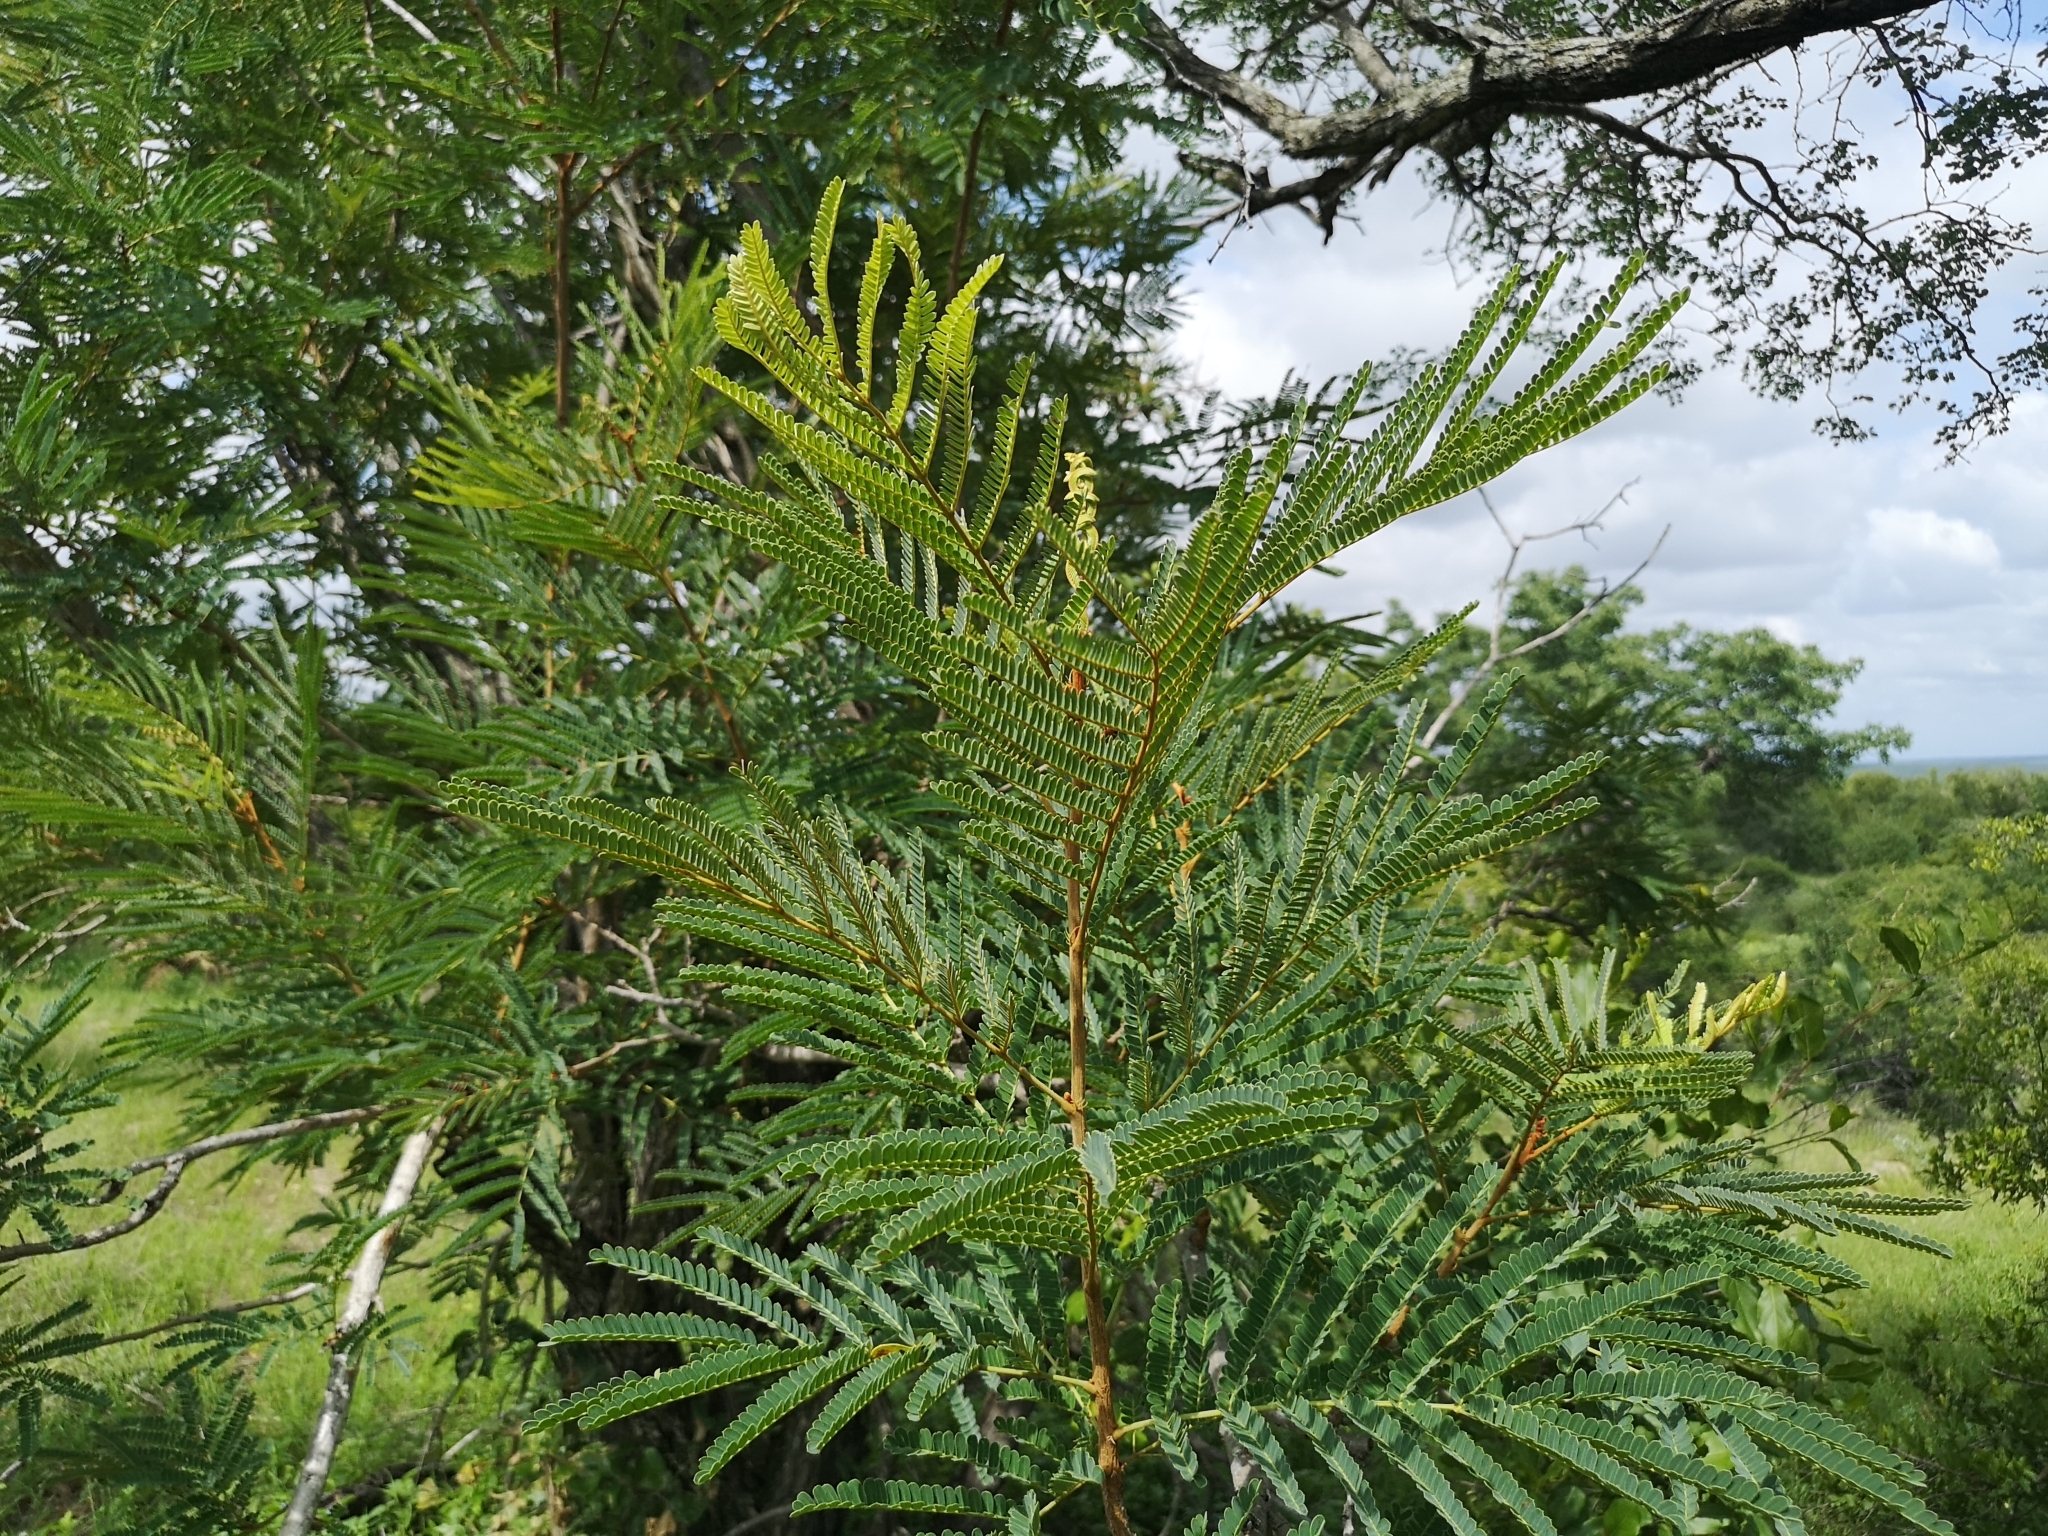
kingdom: Plantae
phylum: Tracheophyta
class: Magnoliopsida
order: Fabales
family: Fabaceae
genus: Peltophorum
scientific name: Peltophorum africanum
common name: African black wattle
